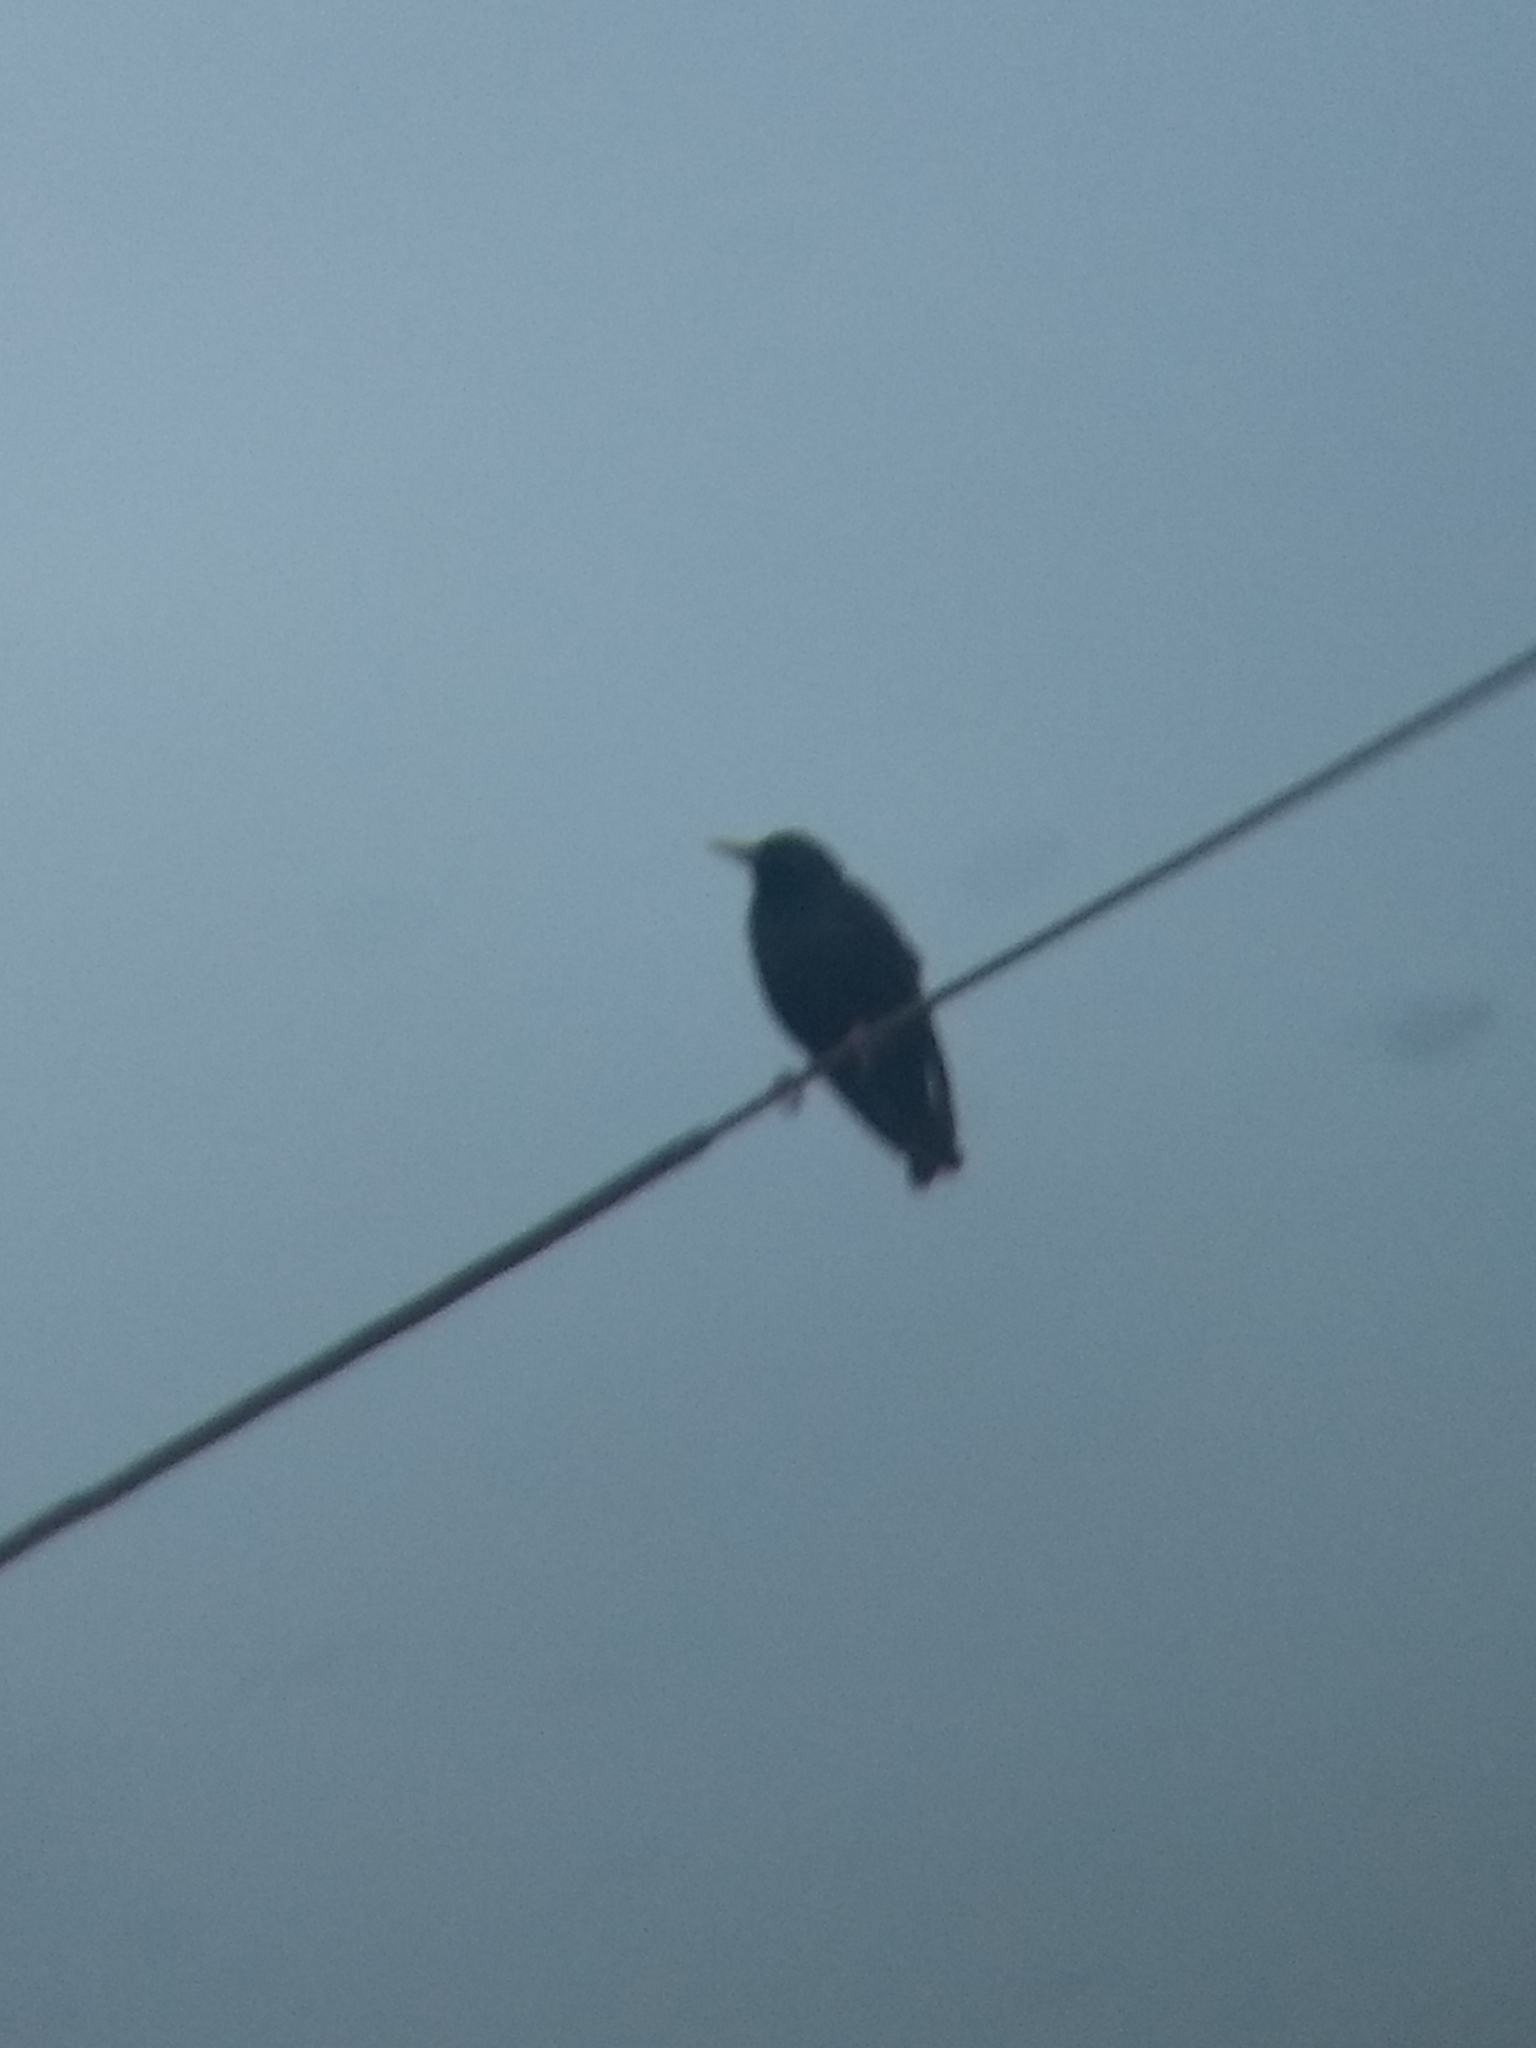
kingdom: Animalia
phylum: Chordata
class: Aves
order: Passeriformes
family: Sturnidae
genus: Sturnus
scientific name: Sturnus vulgaris
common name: Common starling
